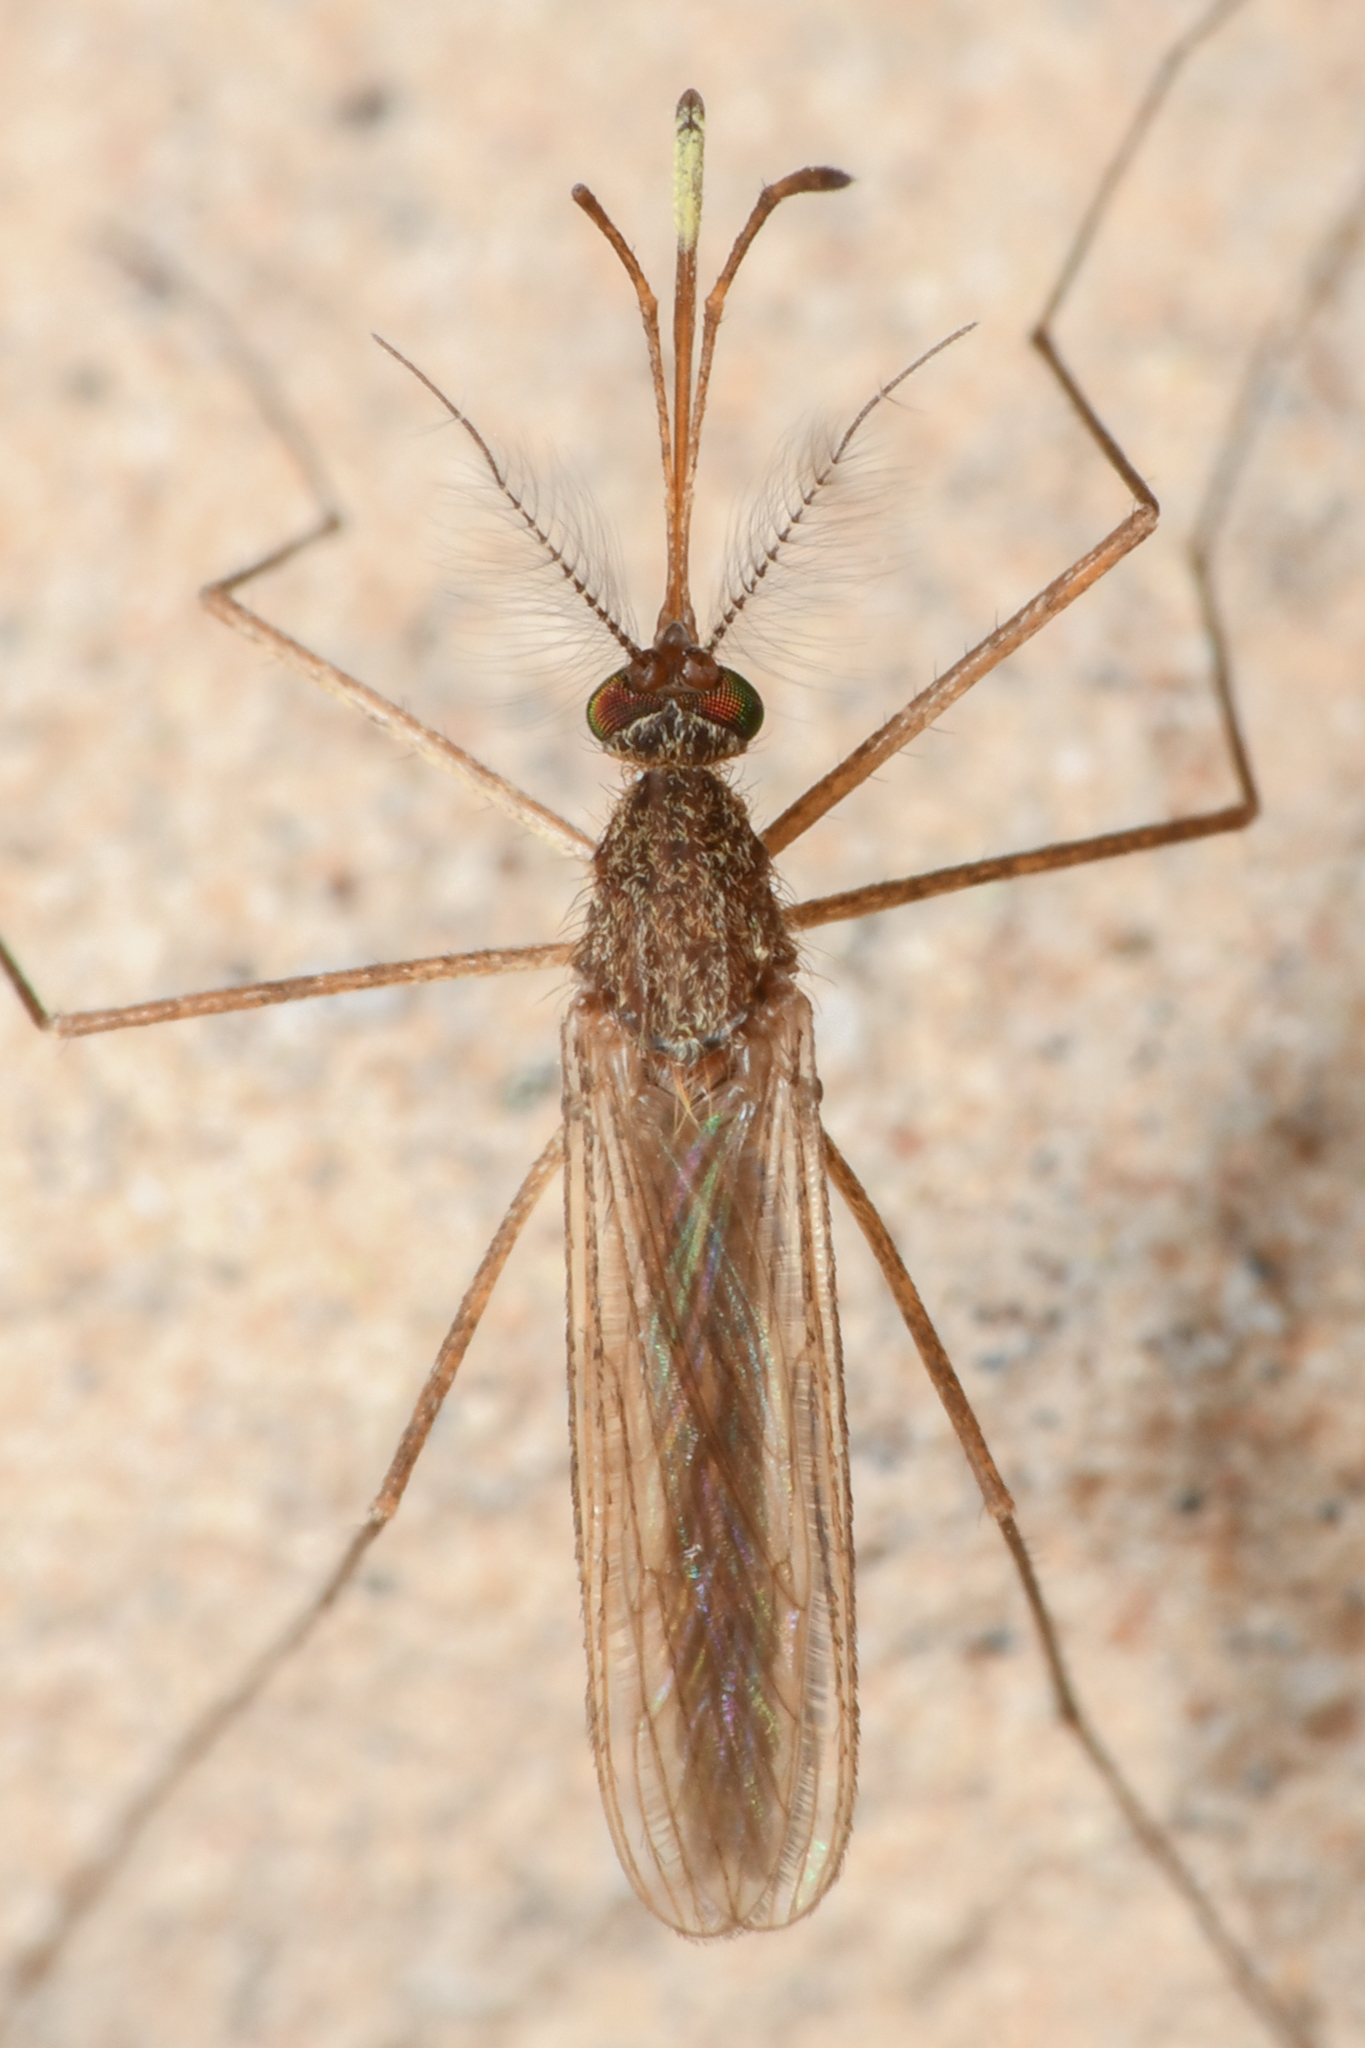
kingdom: Animalia
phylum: Arthropoda
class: Insecta
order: Diptera
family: Culicidae
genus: Culiseta
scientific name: Culiseta inornata
